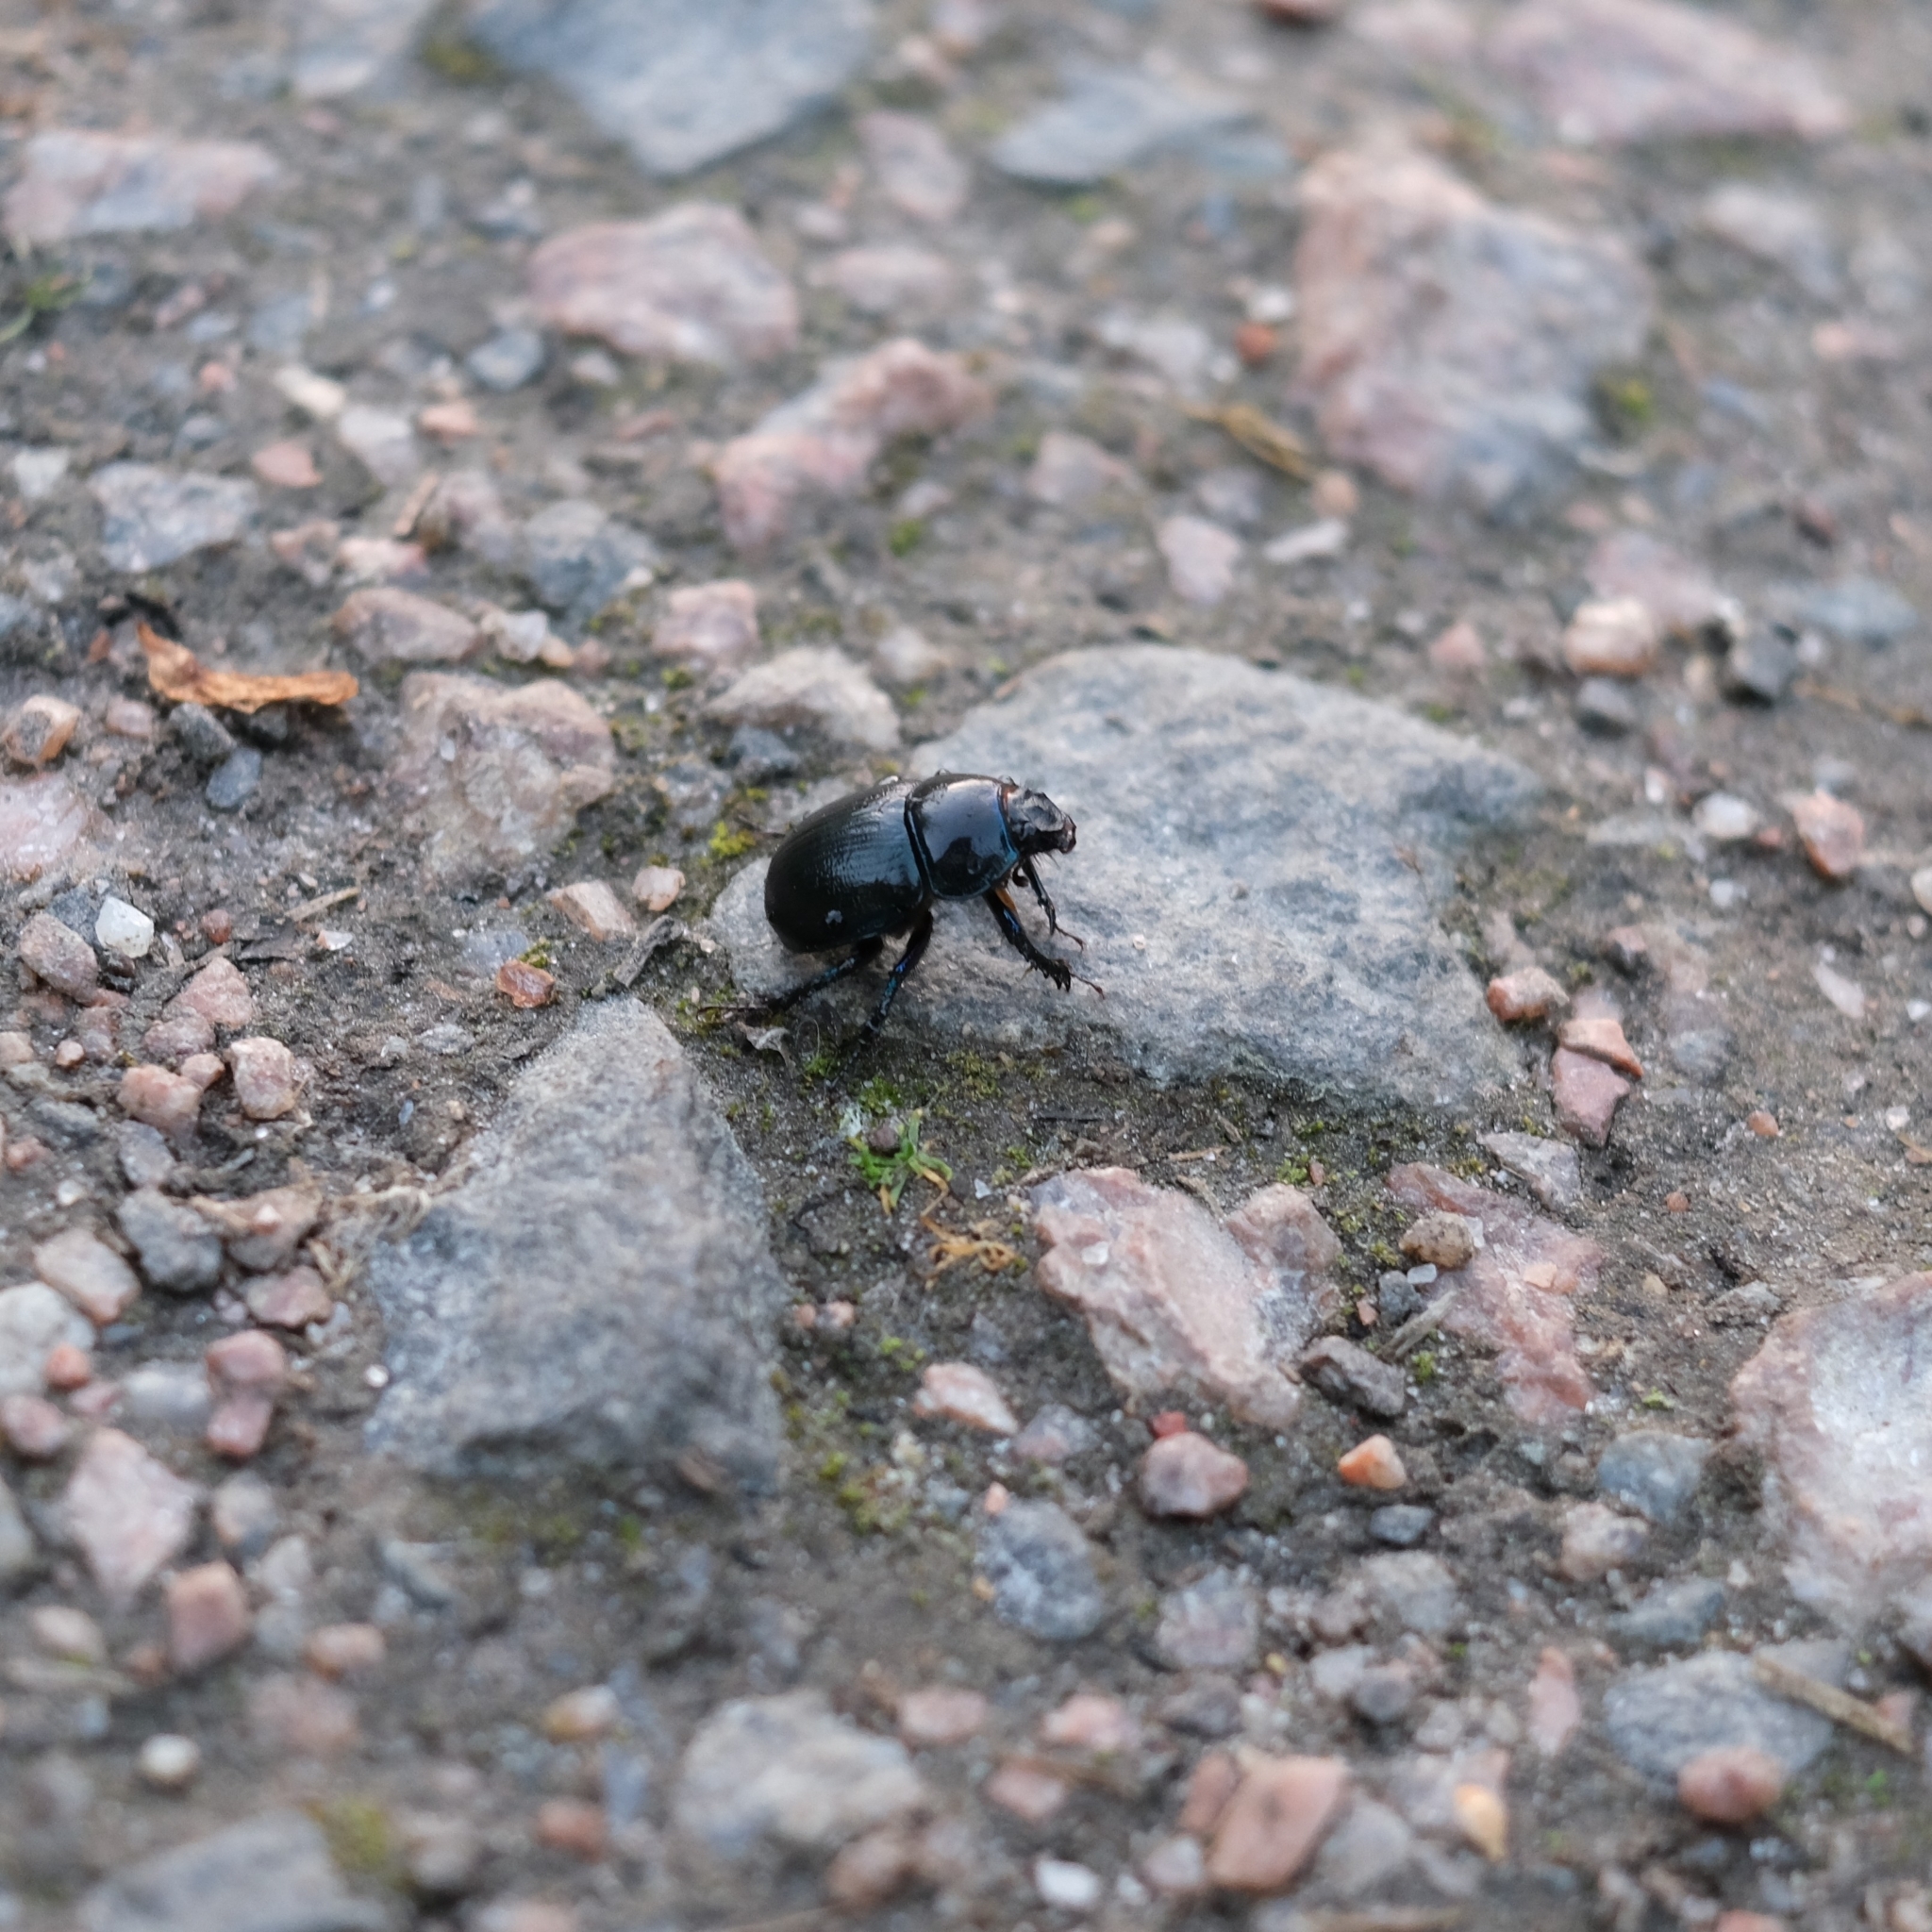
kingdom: Animalia
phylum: Arthropoda
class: Insecta
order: Coleoptera
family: Geotrupidae
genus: Anoplotrupes
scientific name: Anoplotrupes stercorosus
